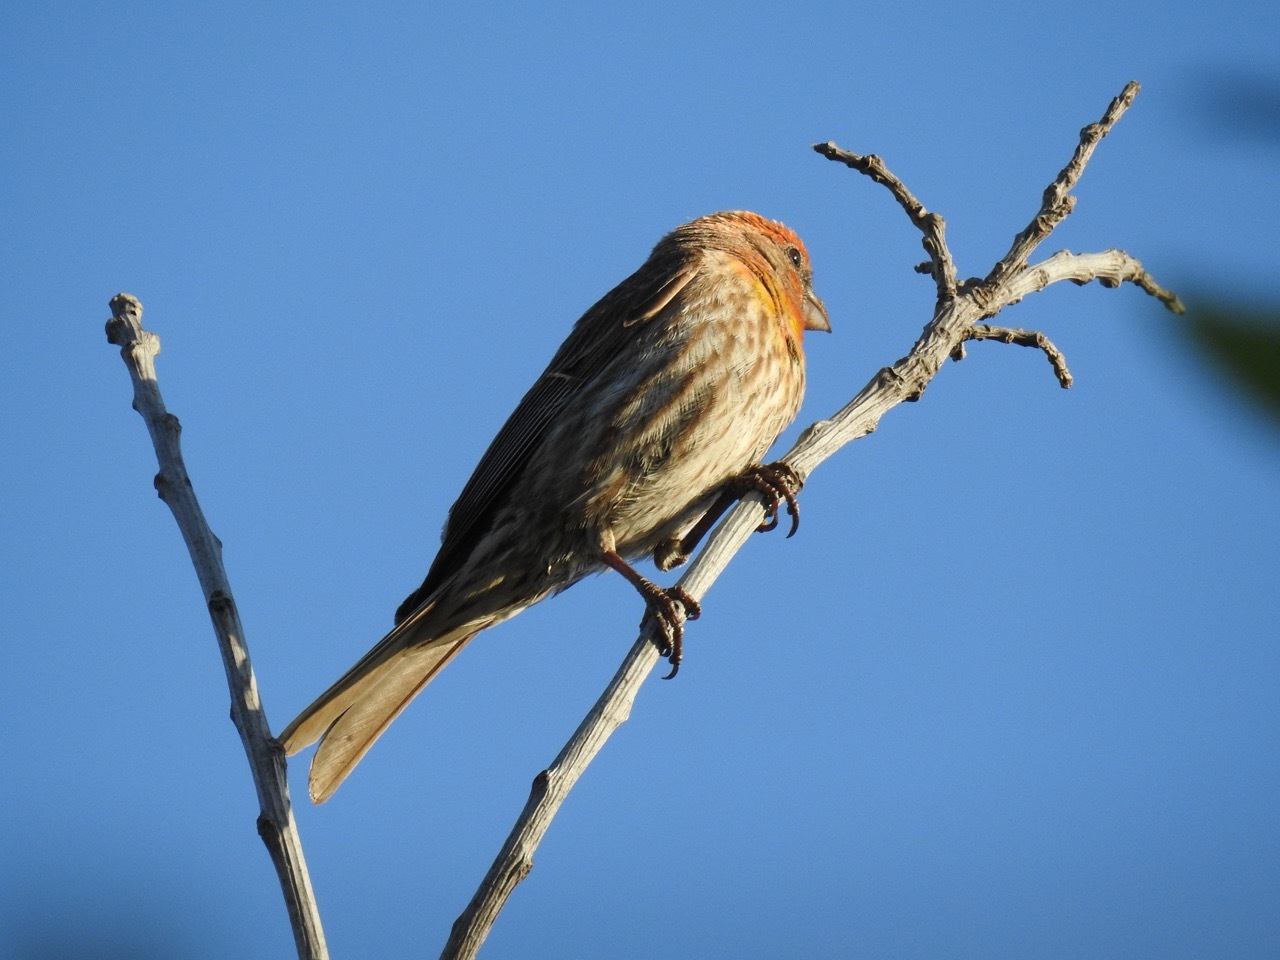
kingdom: Animalia
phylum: Chordata
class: Aves
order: Passeriformes
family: Fringillidae
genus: Haemorhous
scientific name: Haemorhous mexicanus
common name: House finch
